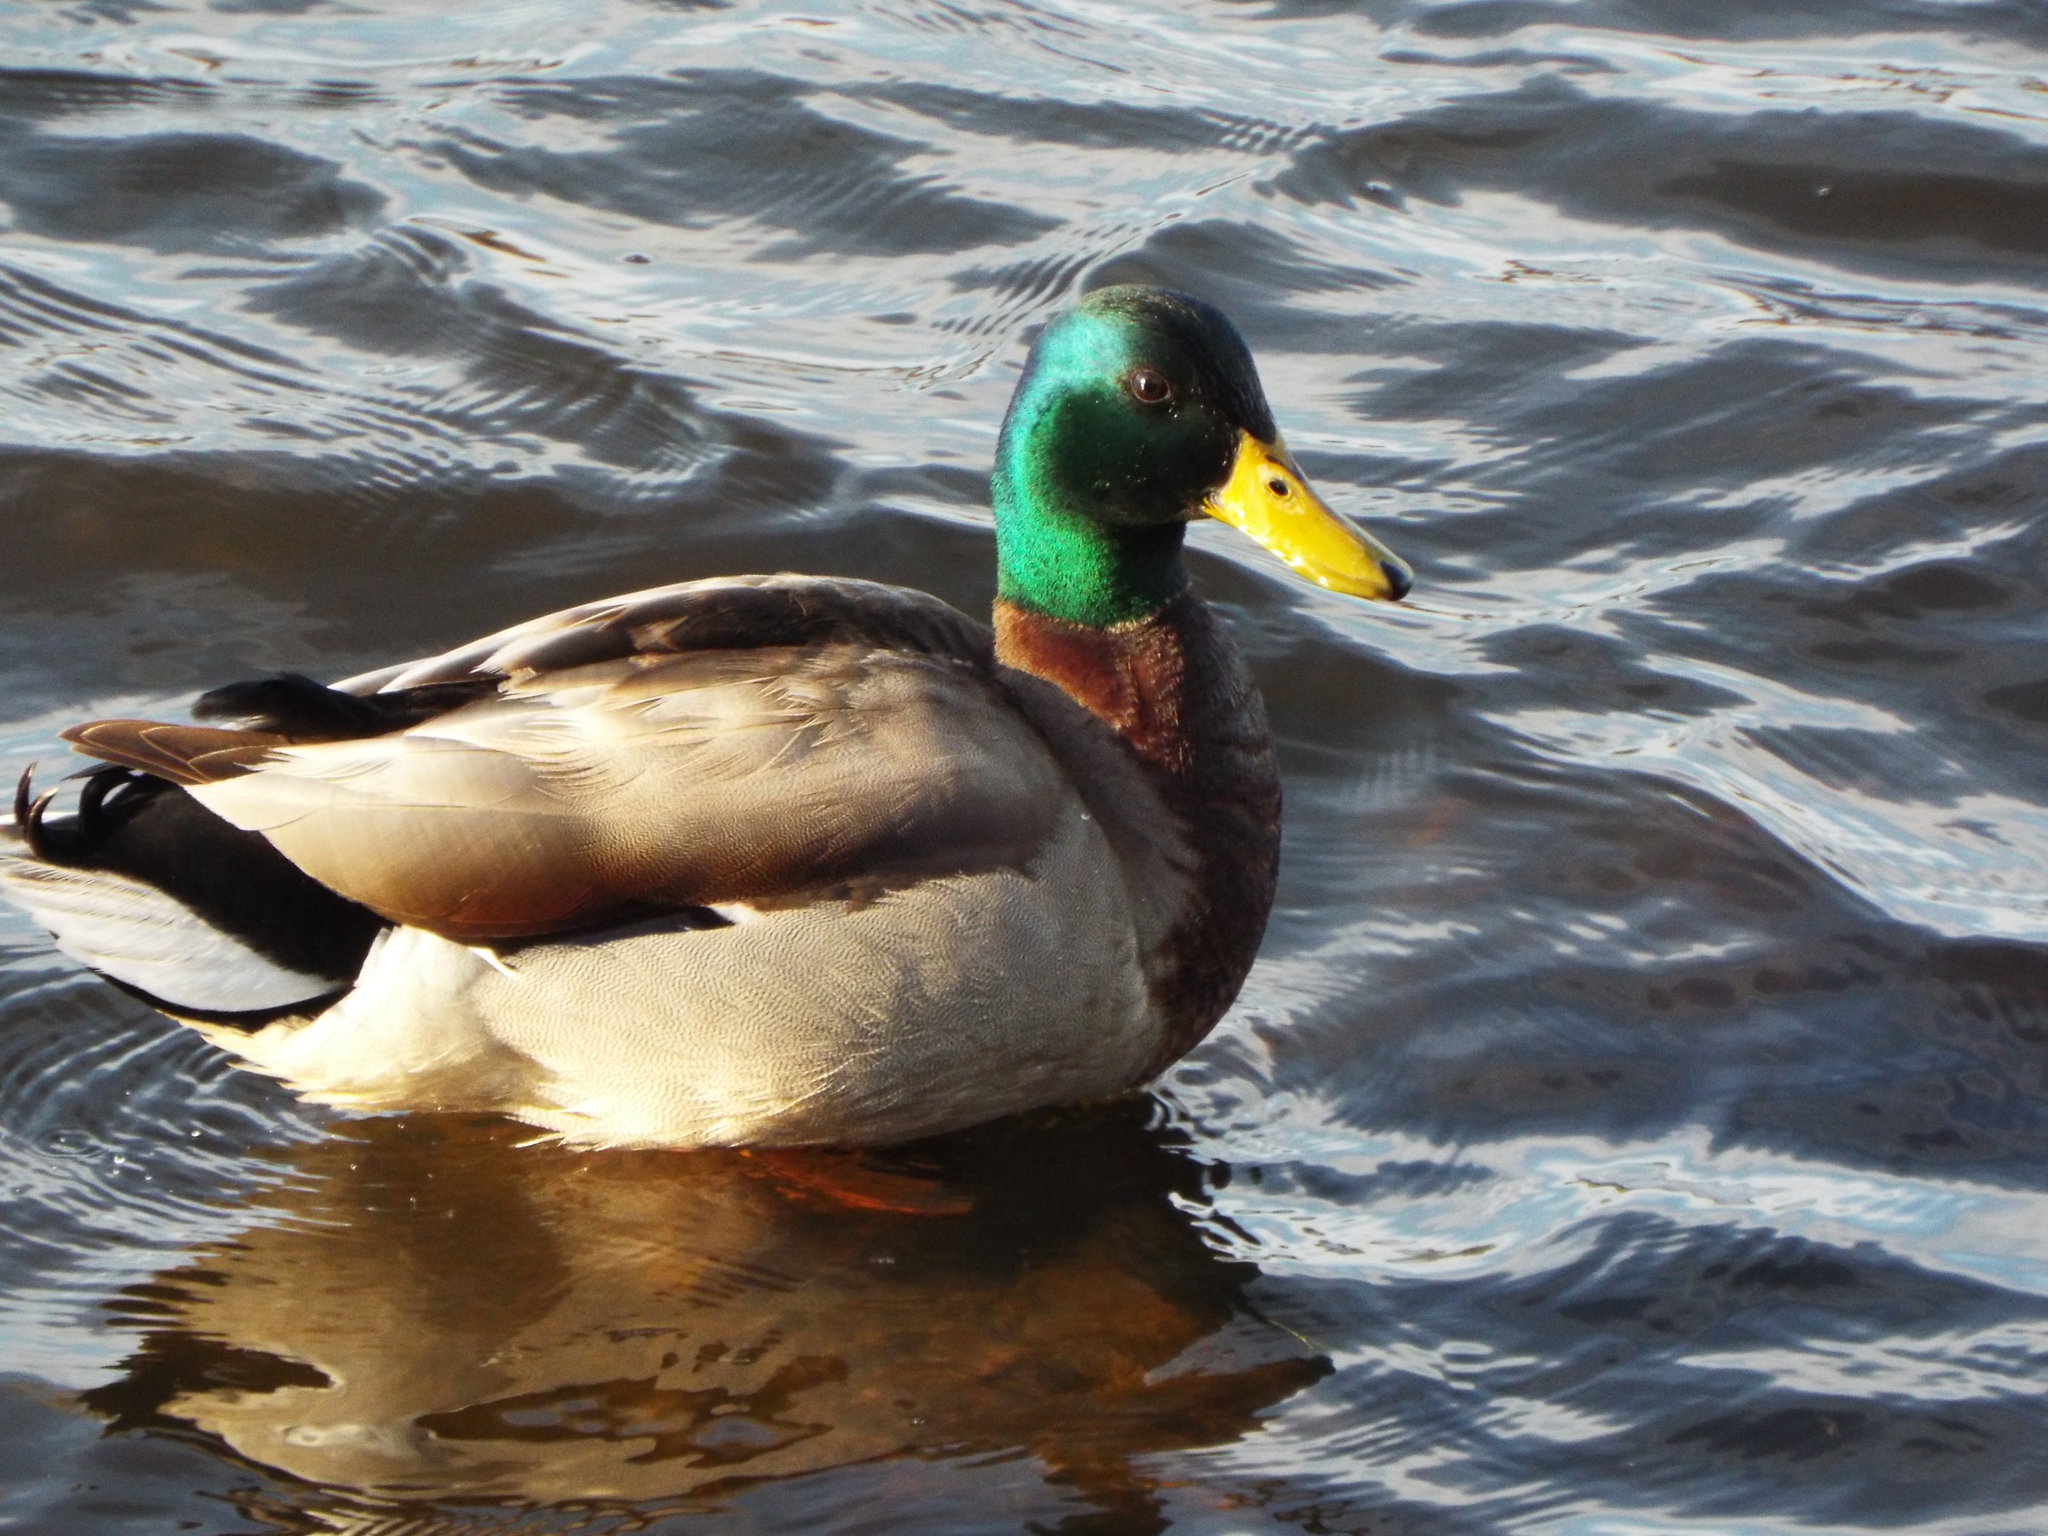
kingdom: Animalia
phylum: Chordata
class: Aves
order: Anseriformes
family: Anatidae
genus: Anas
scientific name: Anas platyrhynchos
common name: Mallard
